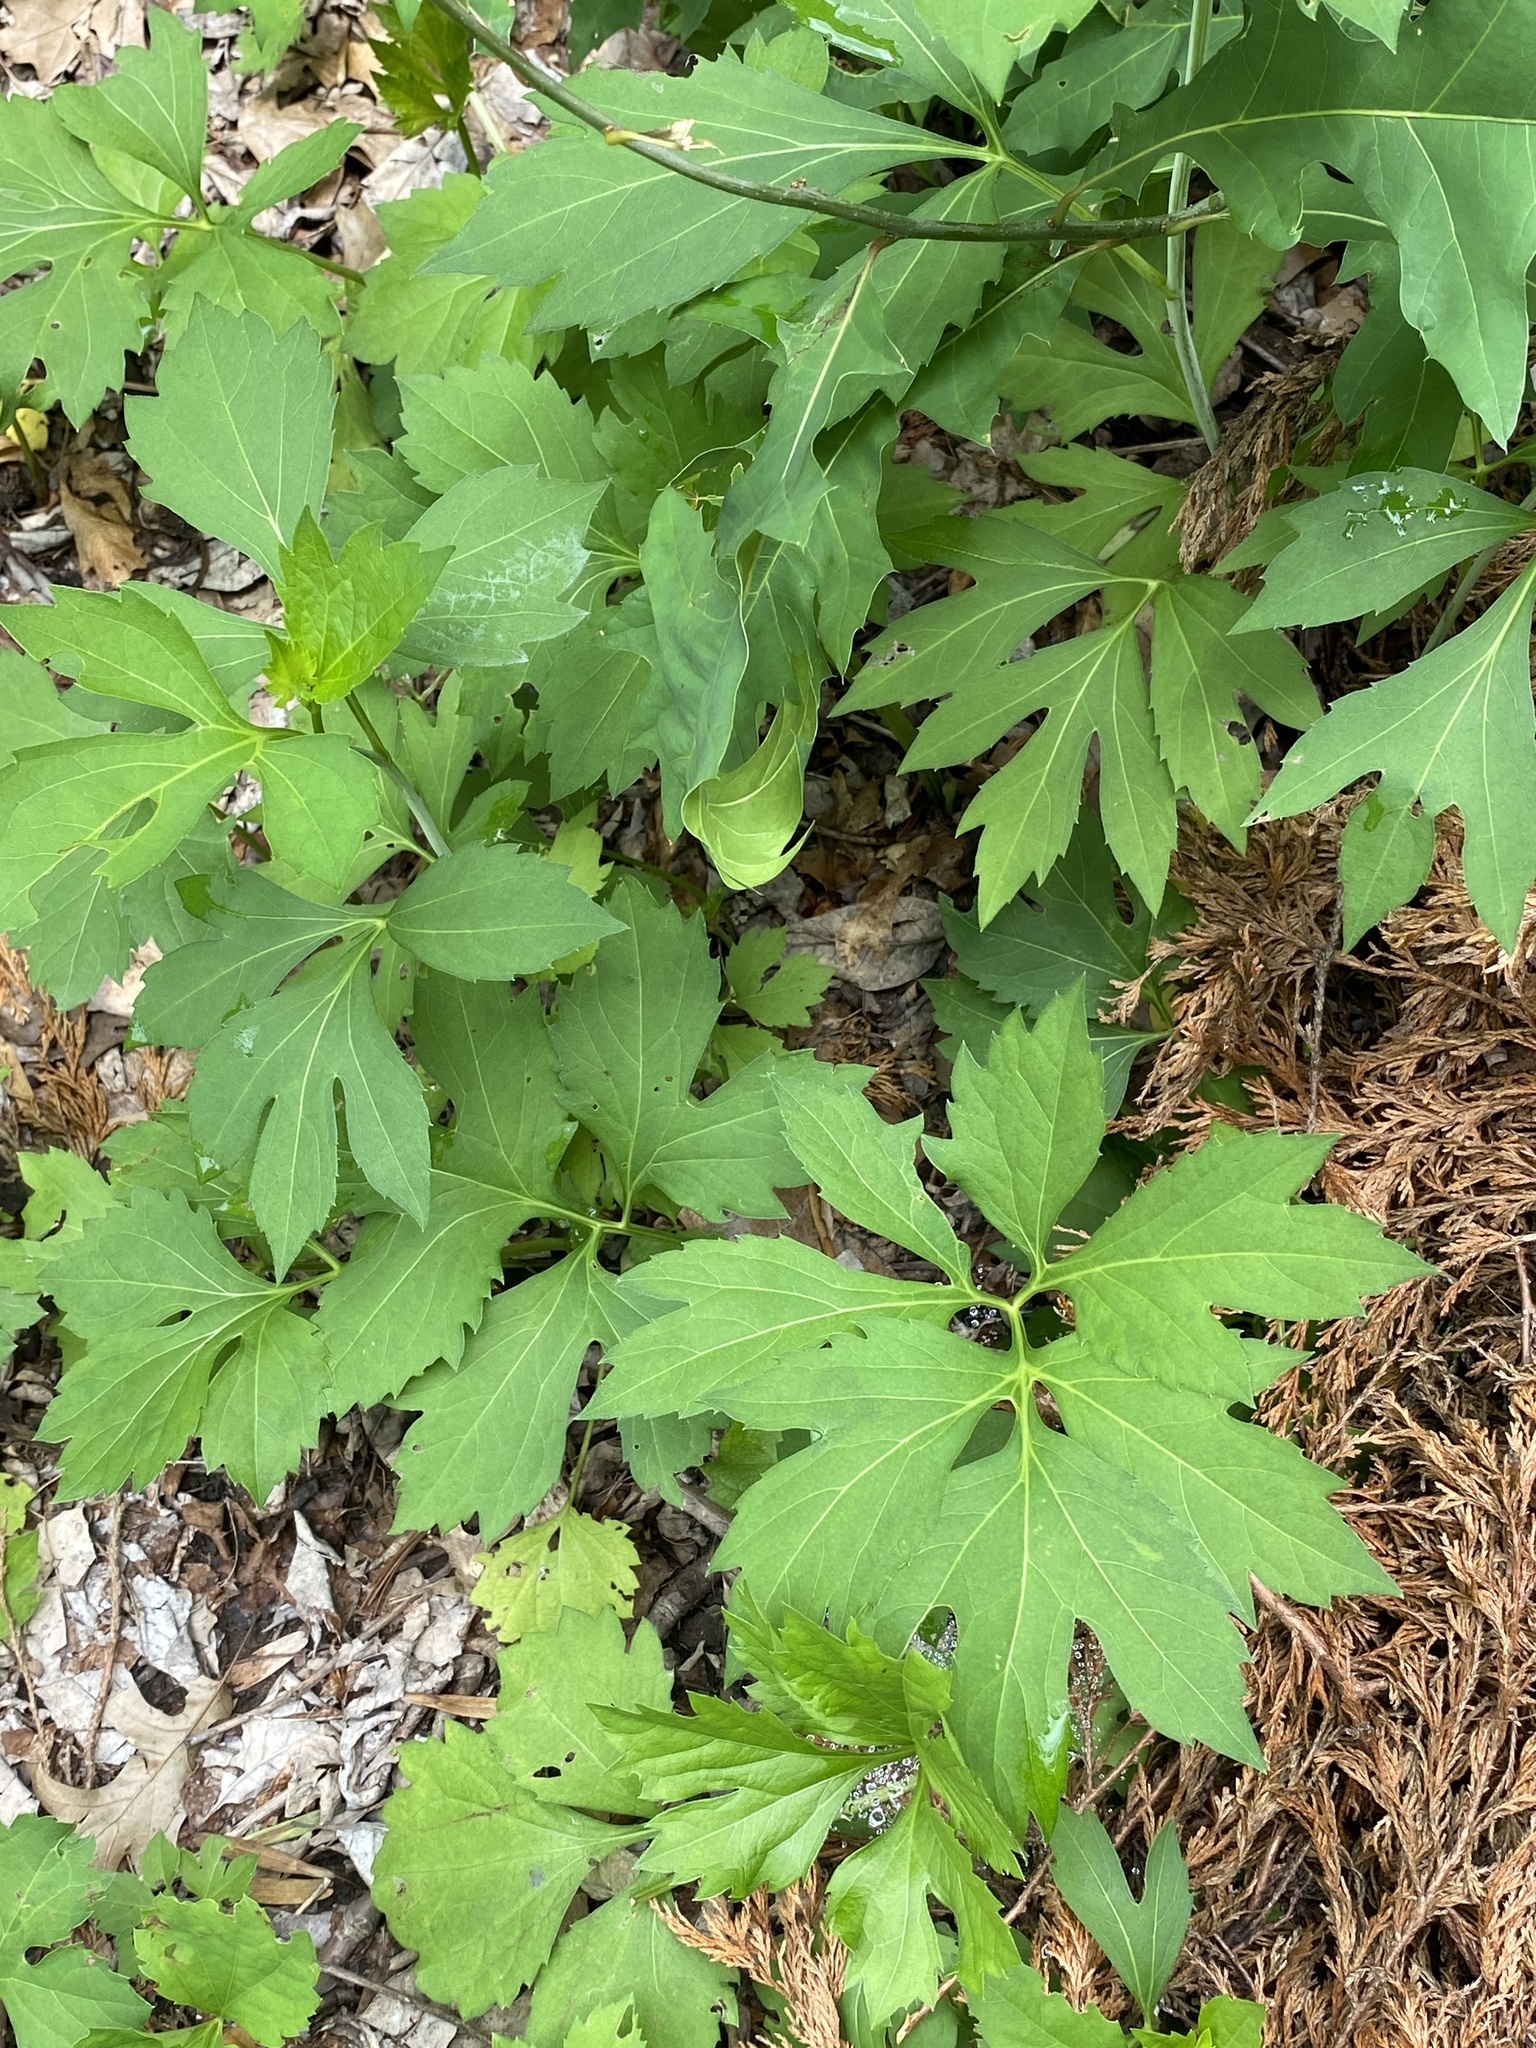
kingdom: Plantae
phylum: Tracheophyta
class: Magnoliopsida
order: Asterales
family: Asteraceae
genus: Rudbeckia
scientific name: Rudbeckia laciniata
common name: Coneflower
